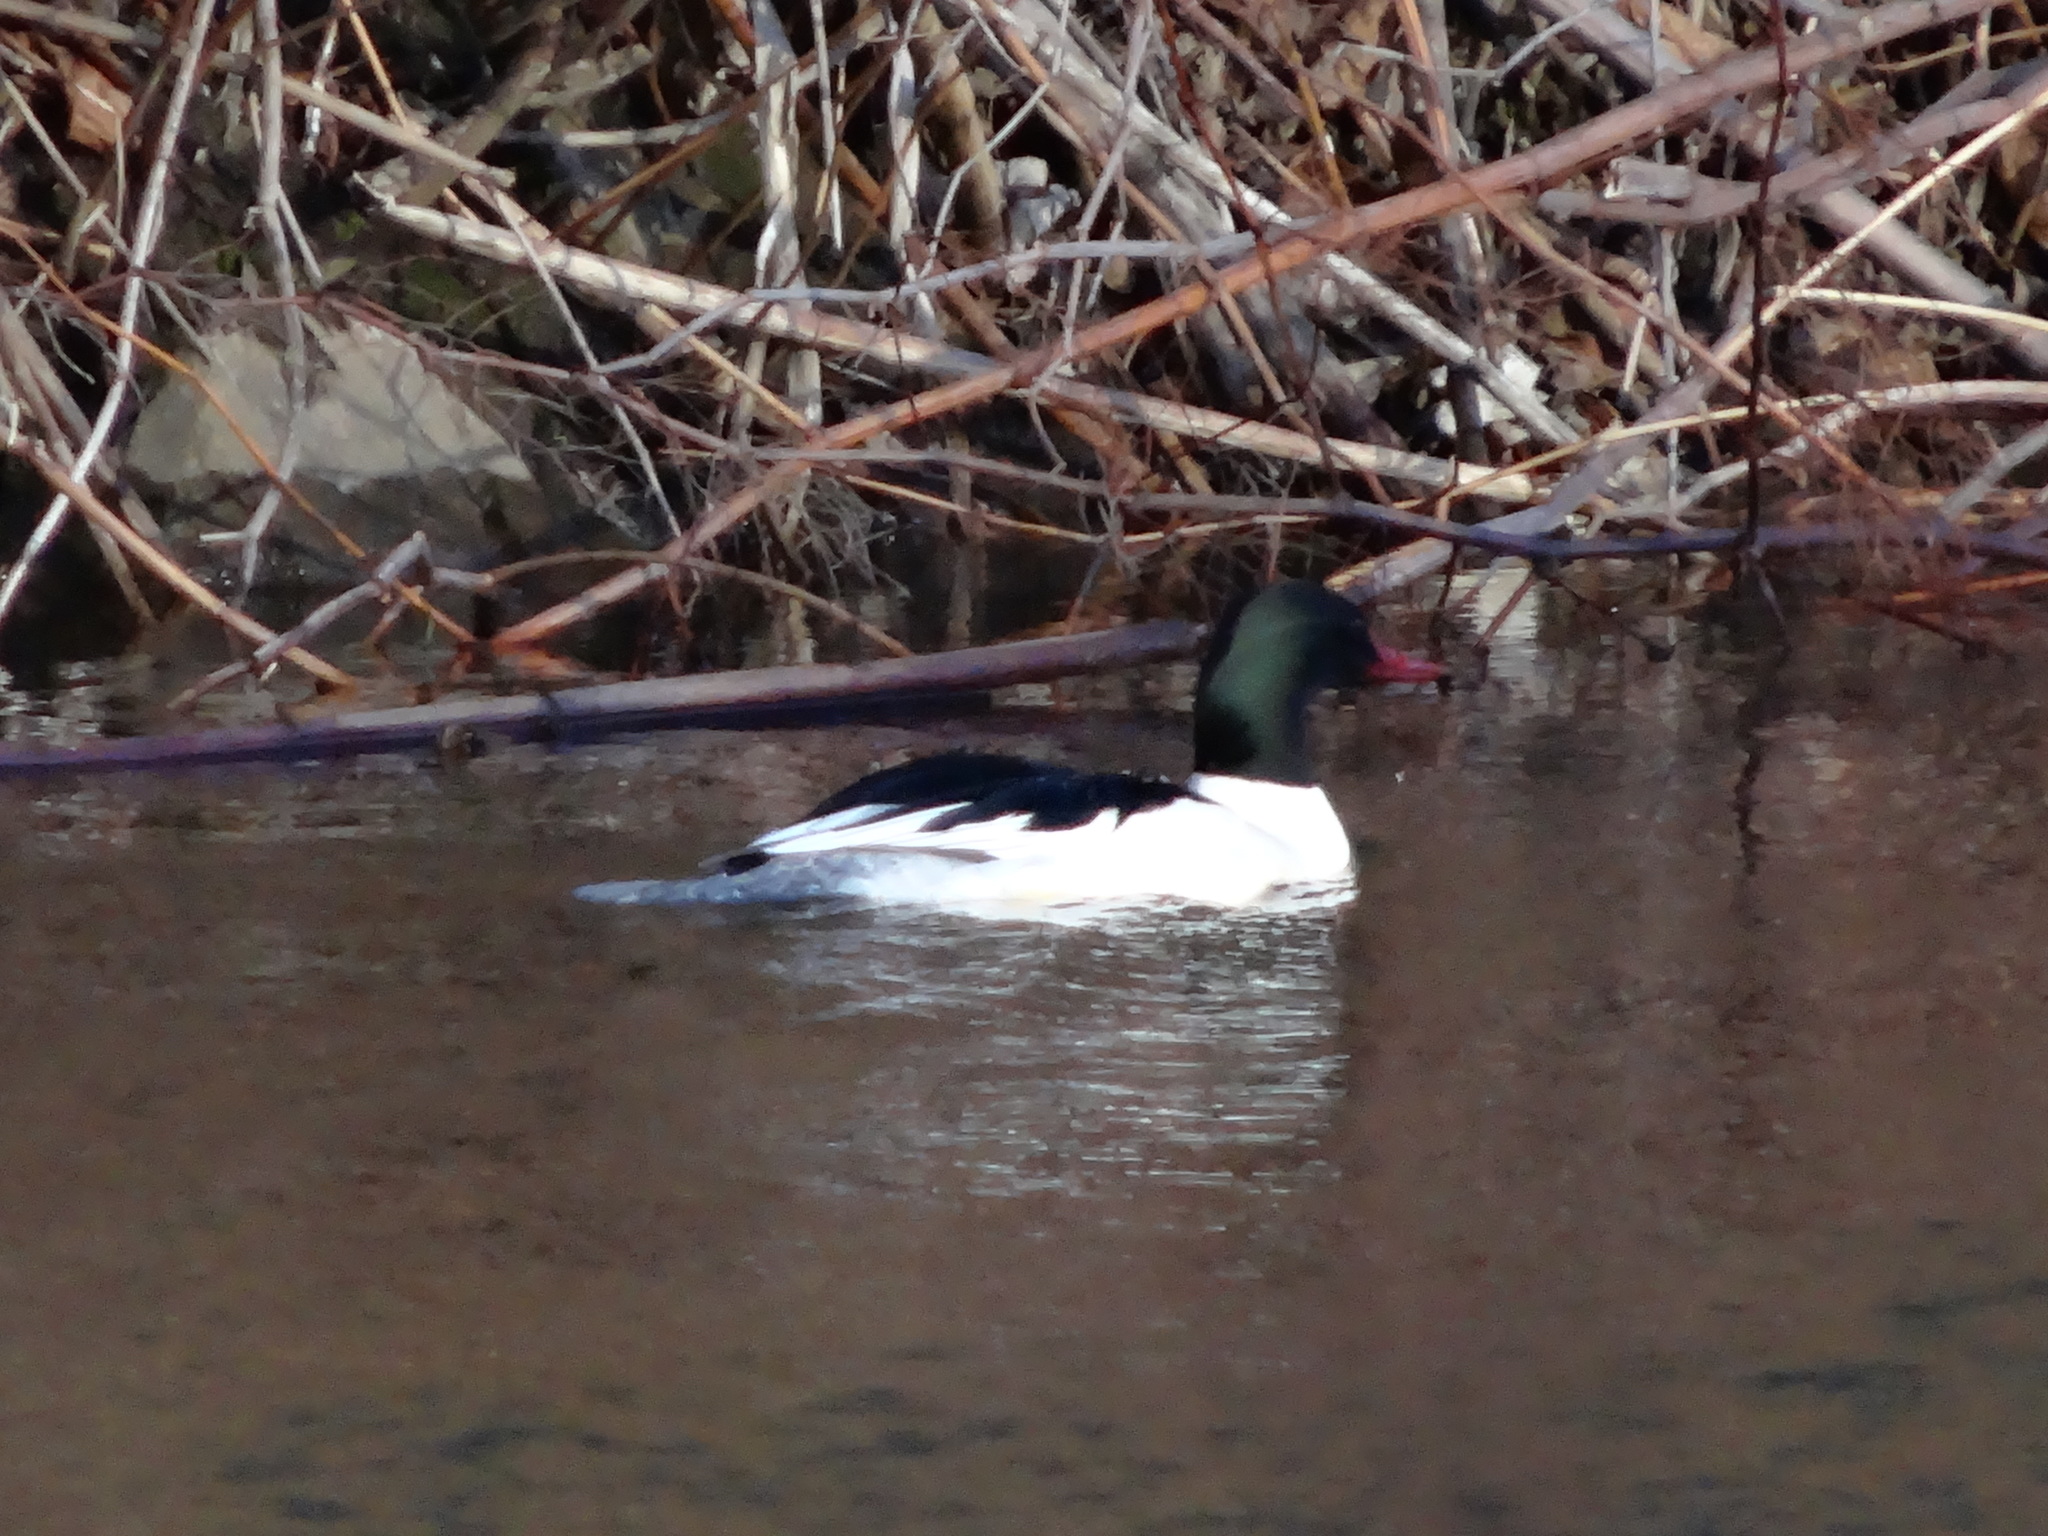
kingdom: Animalia
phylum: Chordata
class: Aves
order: Anseriformes
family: Anatidae
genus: Mergus
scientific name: Mergus merganser
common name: Common merganser
